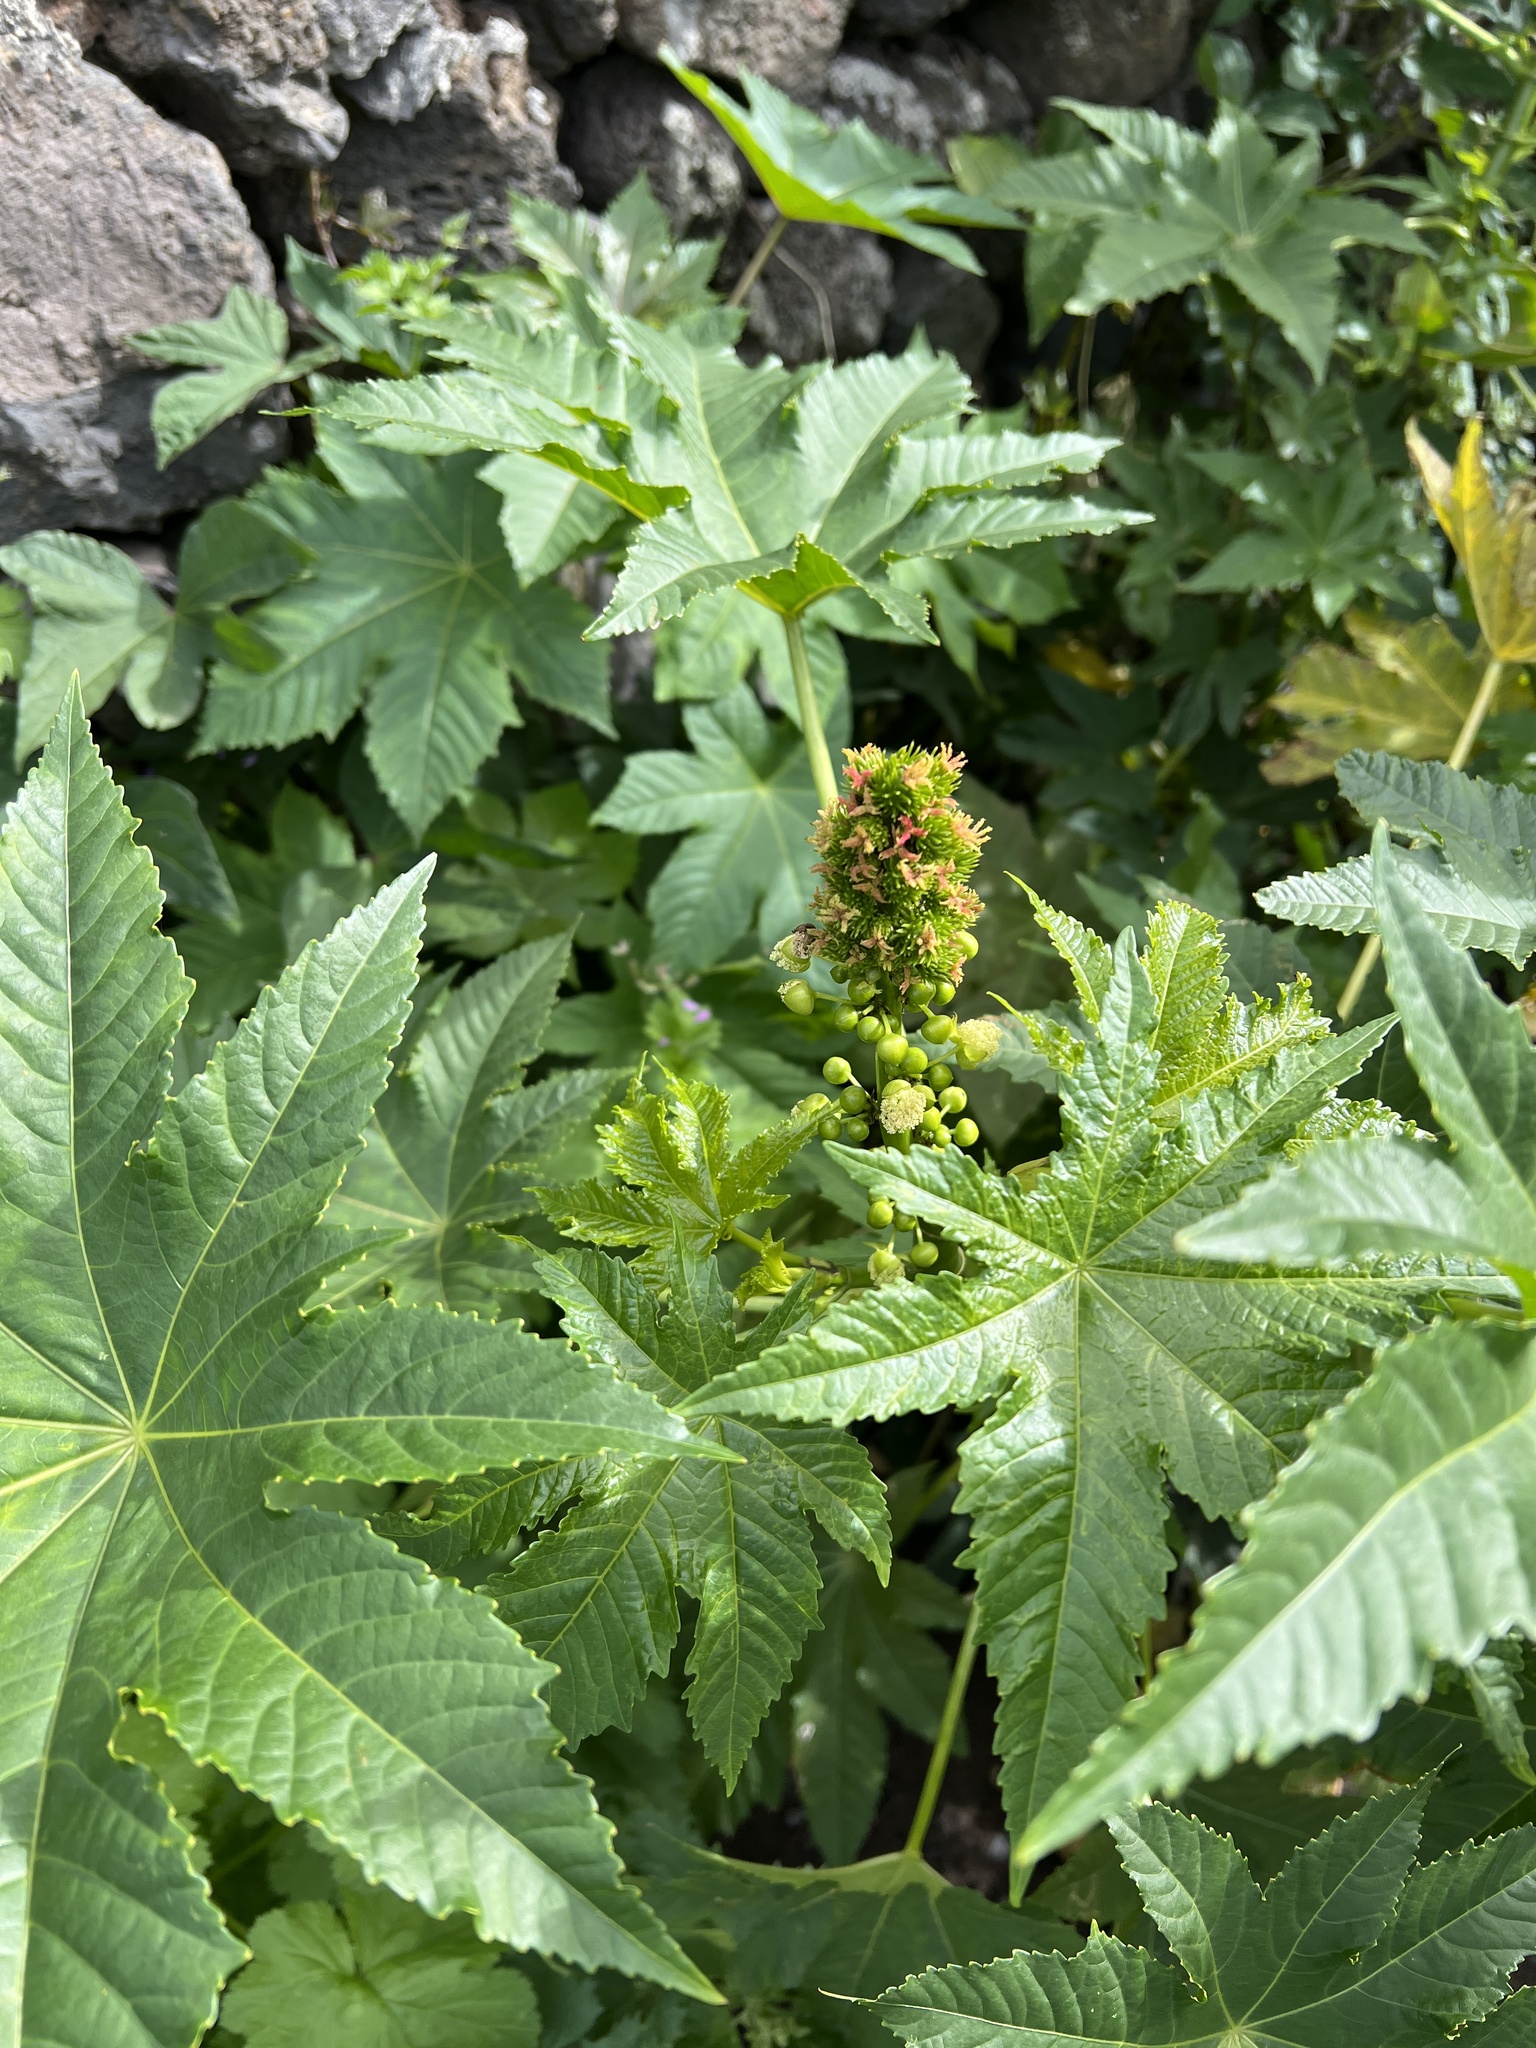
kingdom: Plantae
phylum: Tracheophyta
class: Magnoliopsida
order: Malpighiales
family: Euphorbiaceae
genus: Ricinus
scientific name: Ricinus communis
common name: Castor-oil-plant
